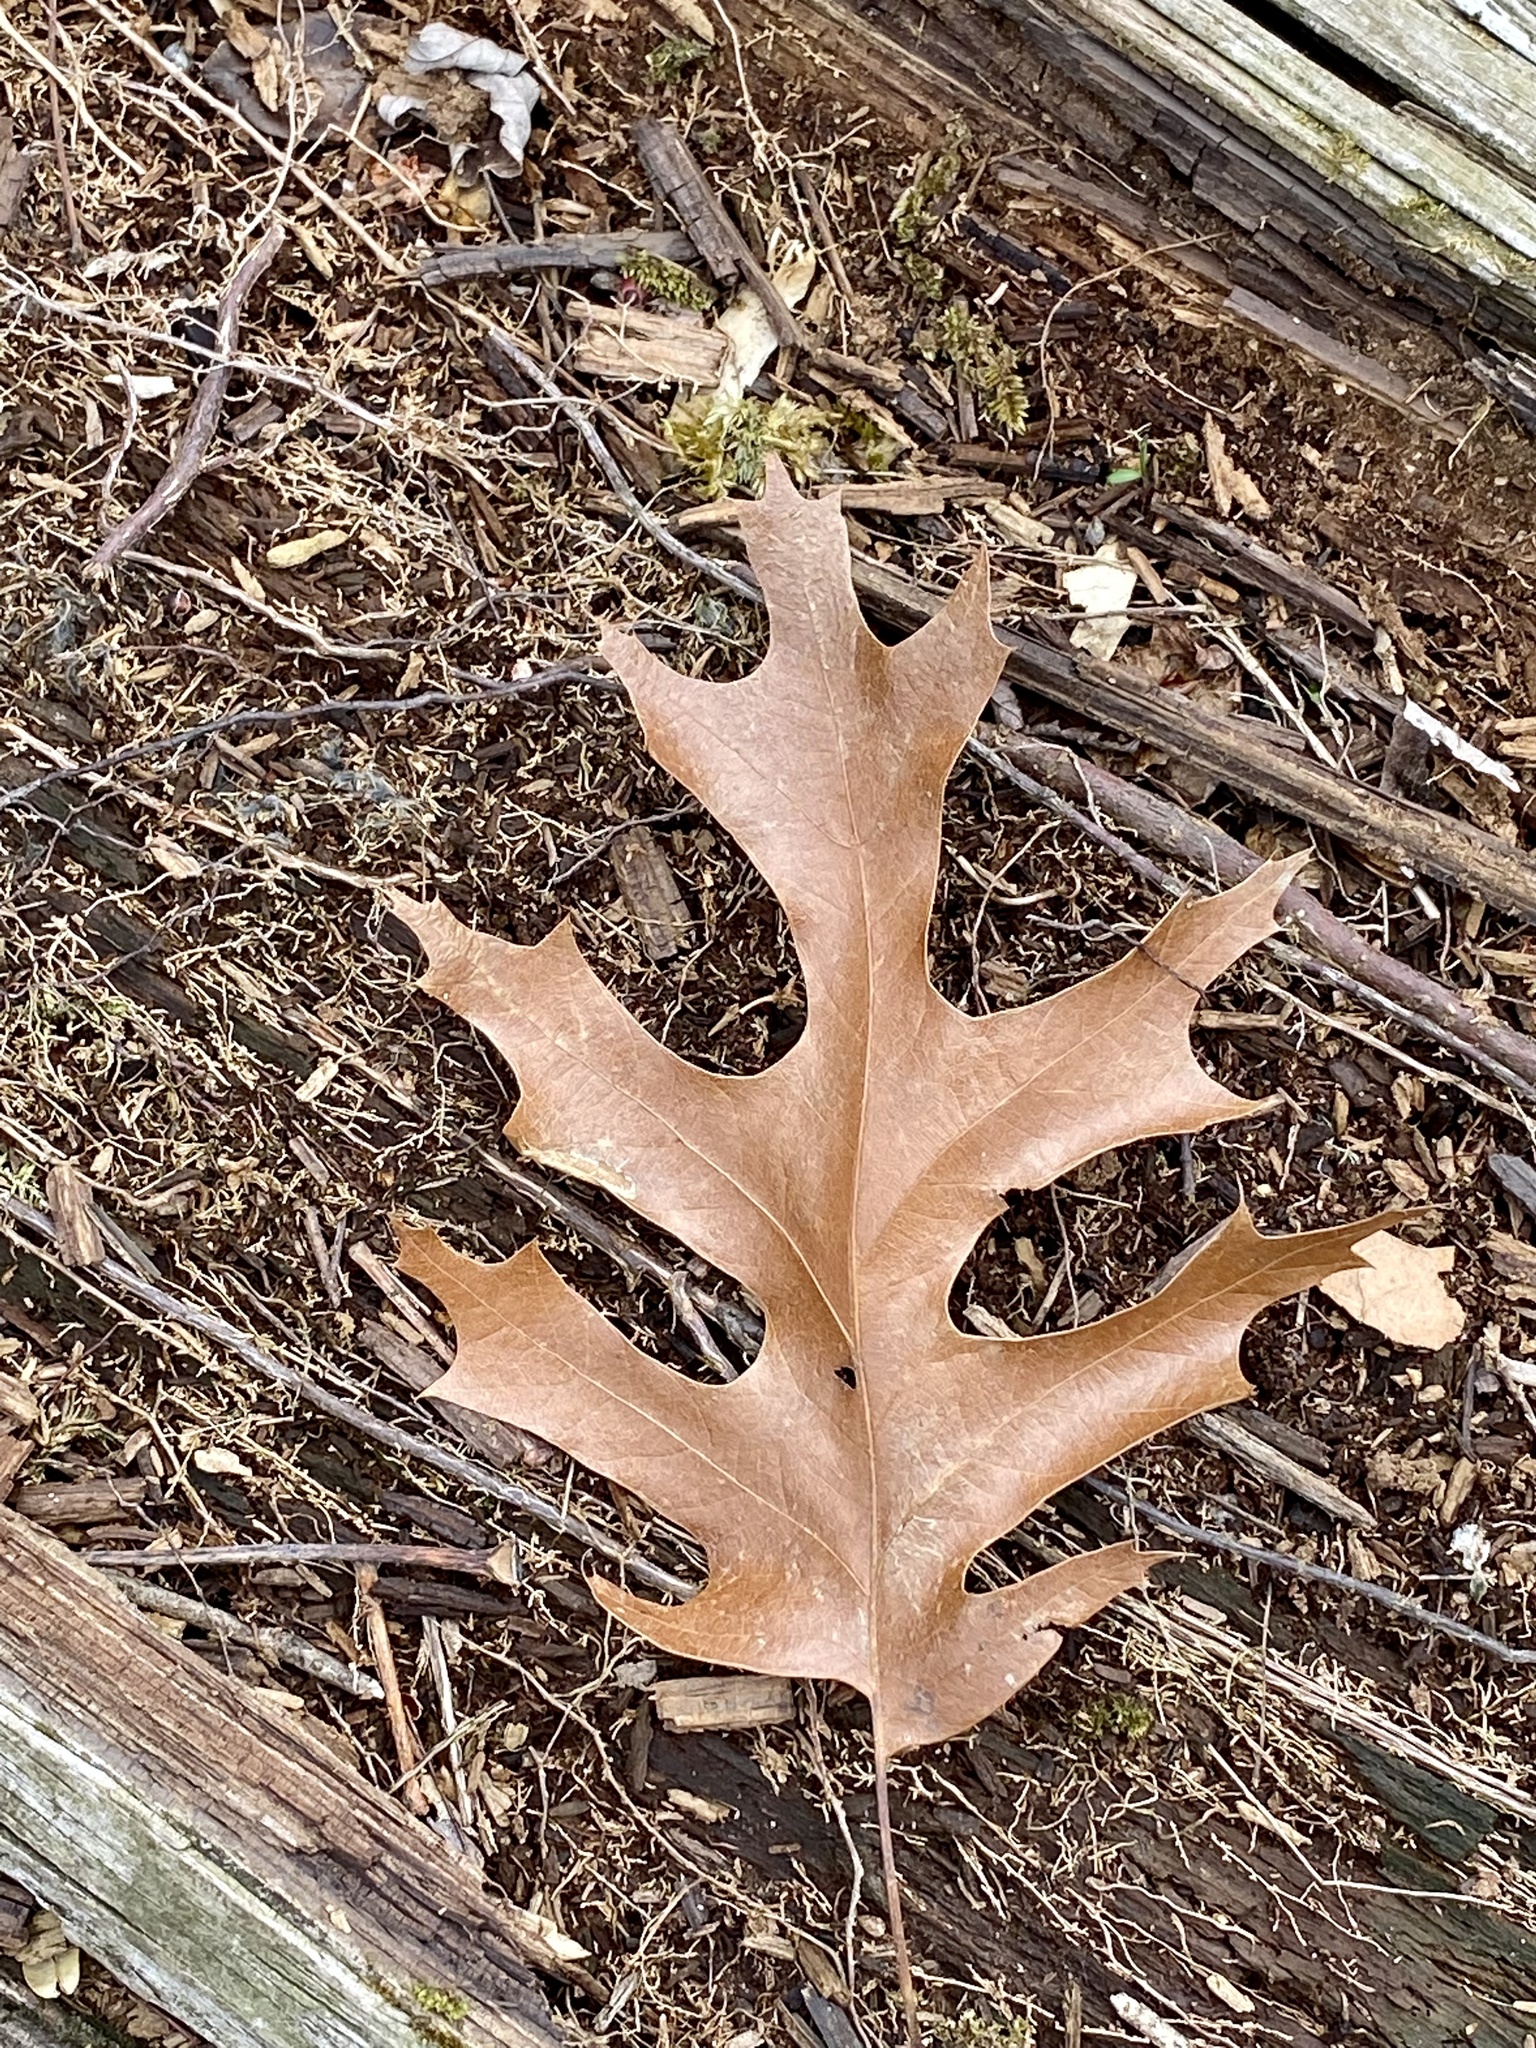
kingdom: Plantae
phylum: Tracheophyta
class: Magnoliopsida
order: Fagales
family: Fagaceae
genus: Quercus
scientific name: Quercus velutina
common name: Black oak
